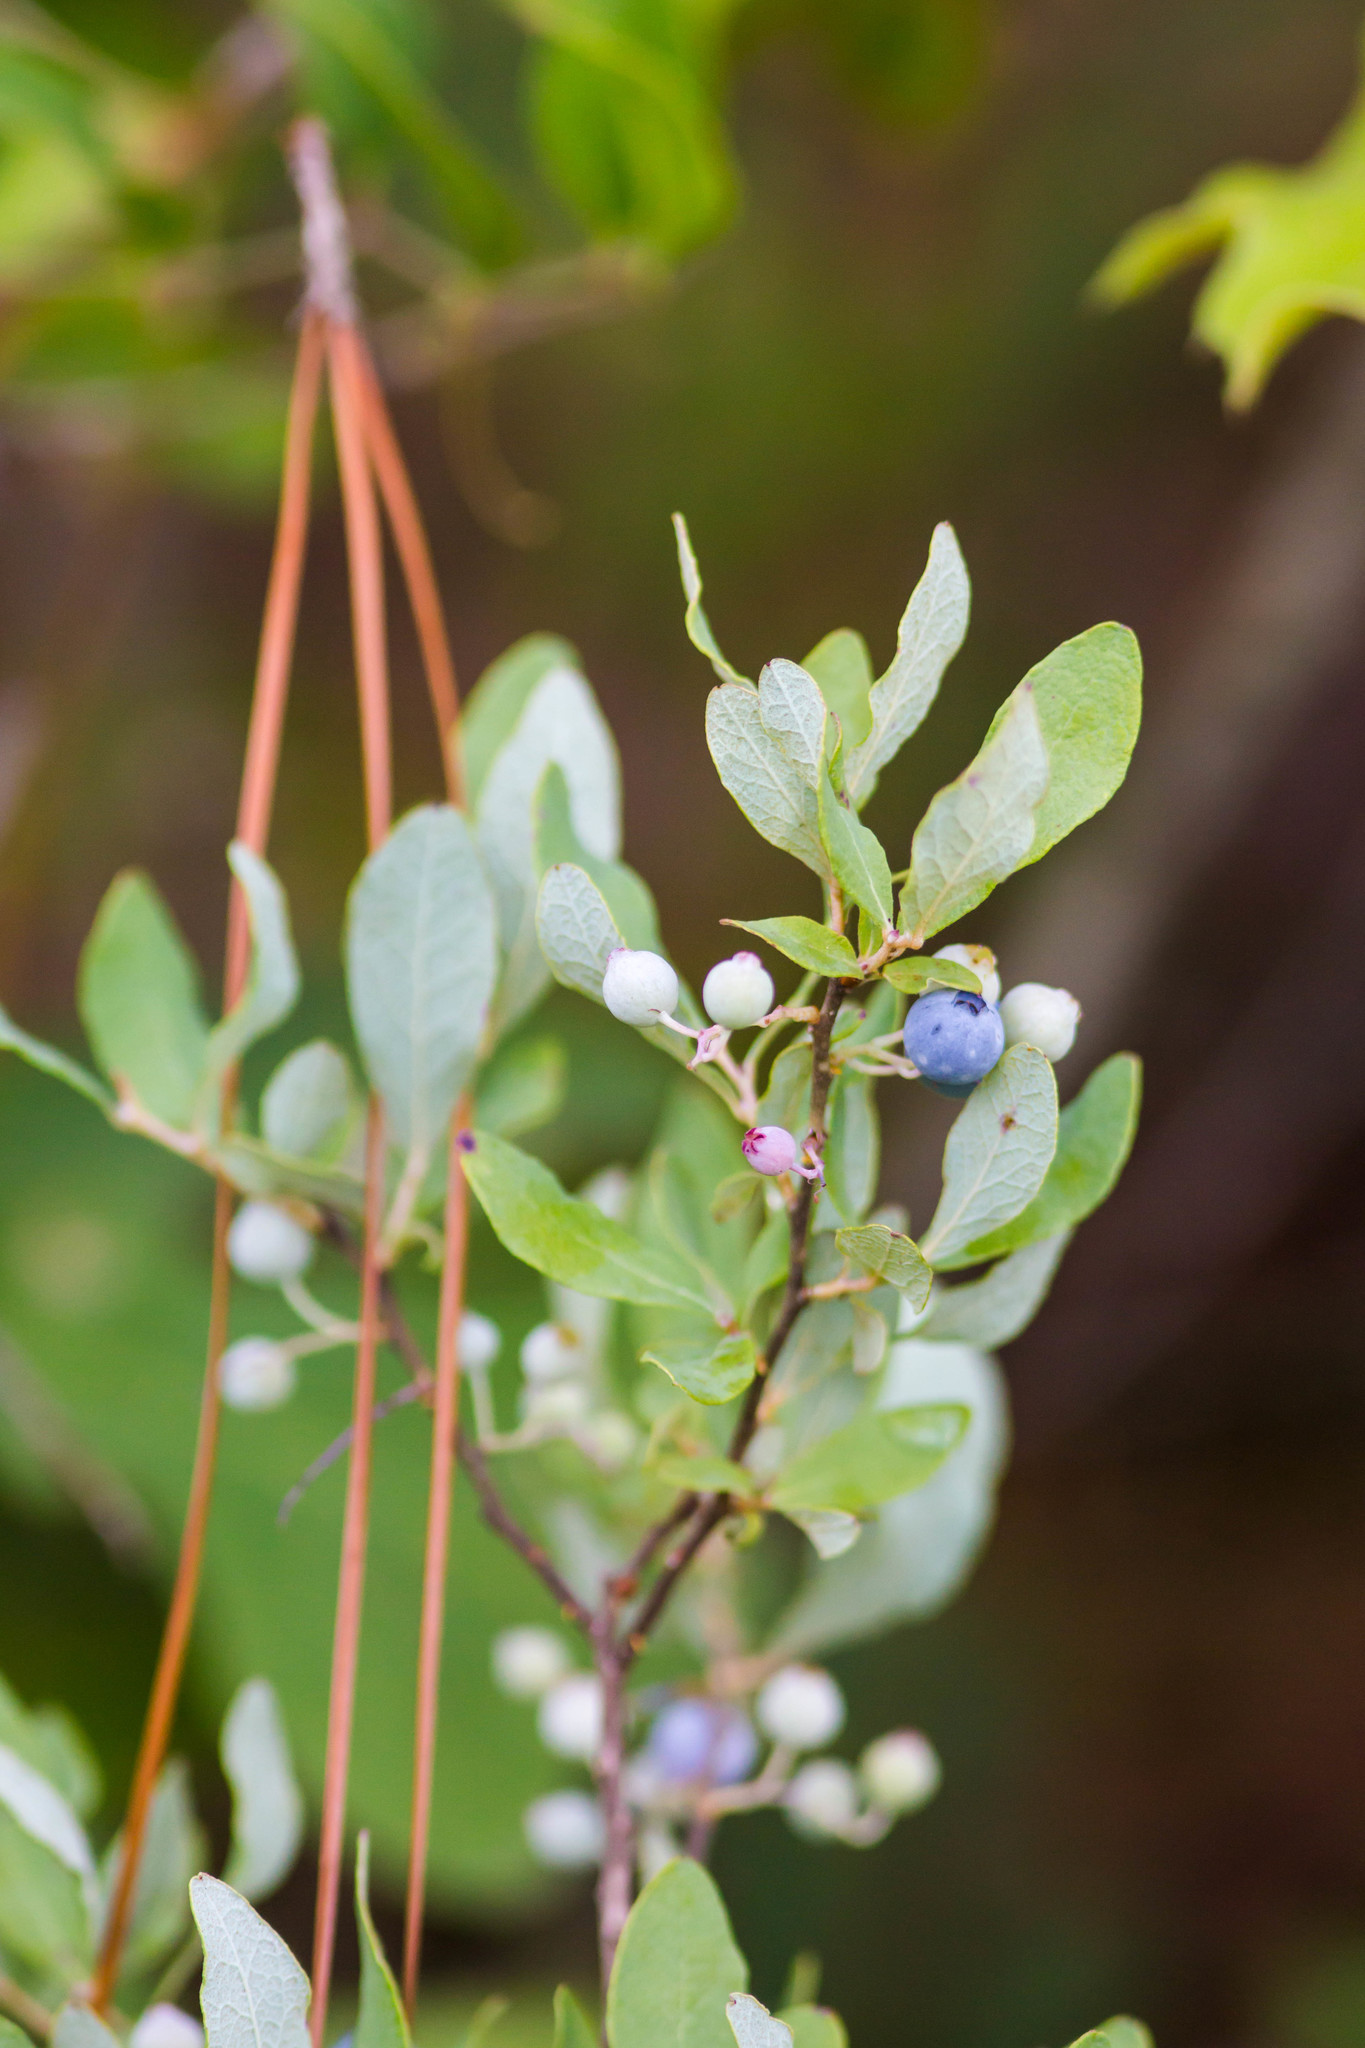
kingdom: Plantae
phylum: Tracheophyta
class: Magnoliopsida
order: Ericales
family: Ericaceae
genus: Gaylussacia
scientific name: Gaylussacia nana
